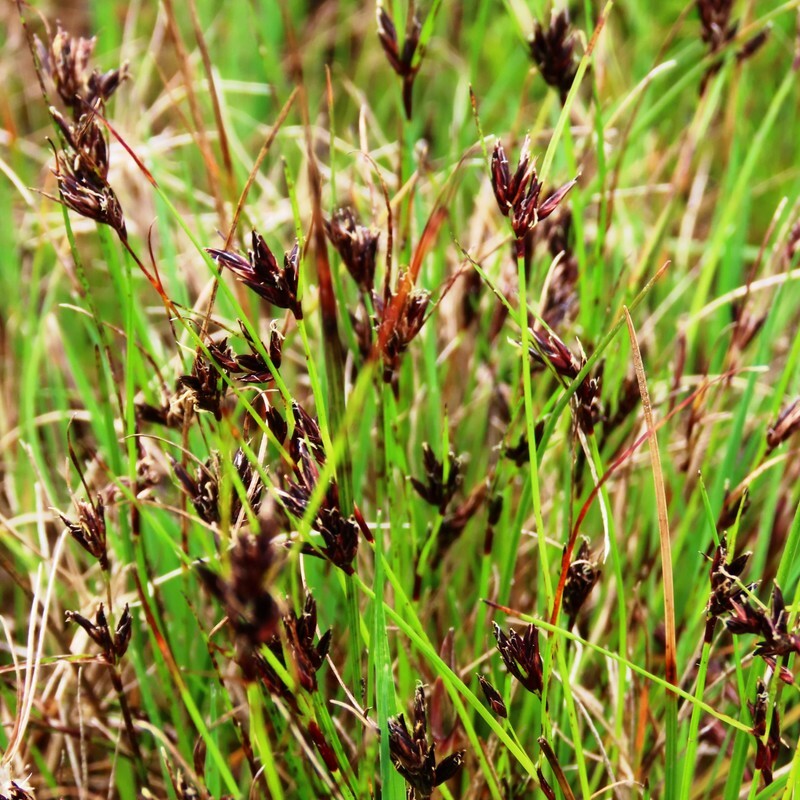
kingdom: Plantae
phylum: Tracheophyta
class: Liliopsida
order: Poales
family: Cyperaceae
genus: Schoenus
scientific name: Schoenus apogon
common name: Smooth bogrush
